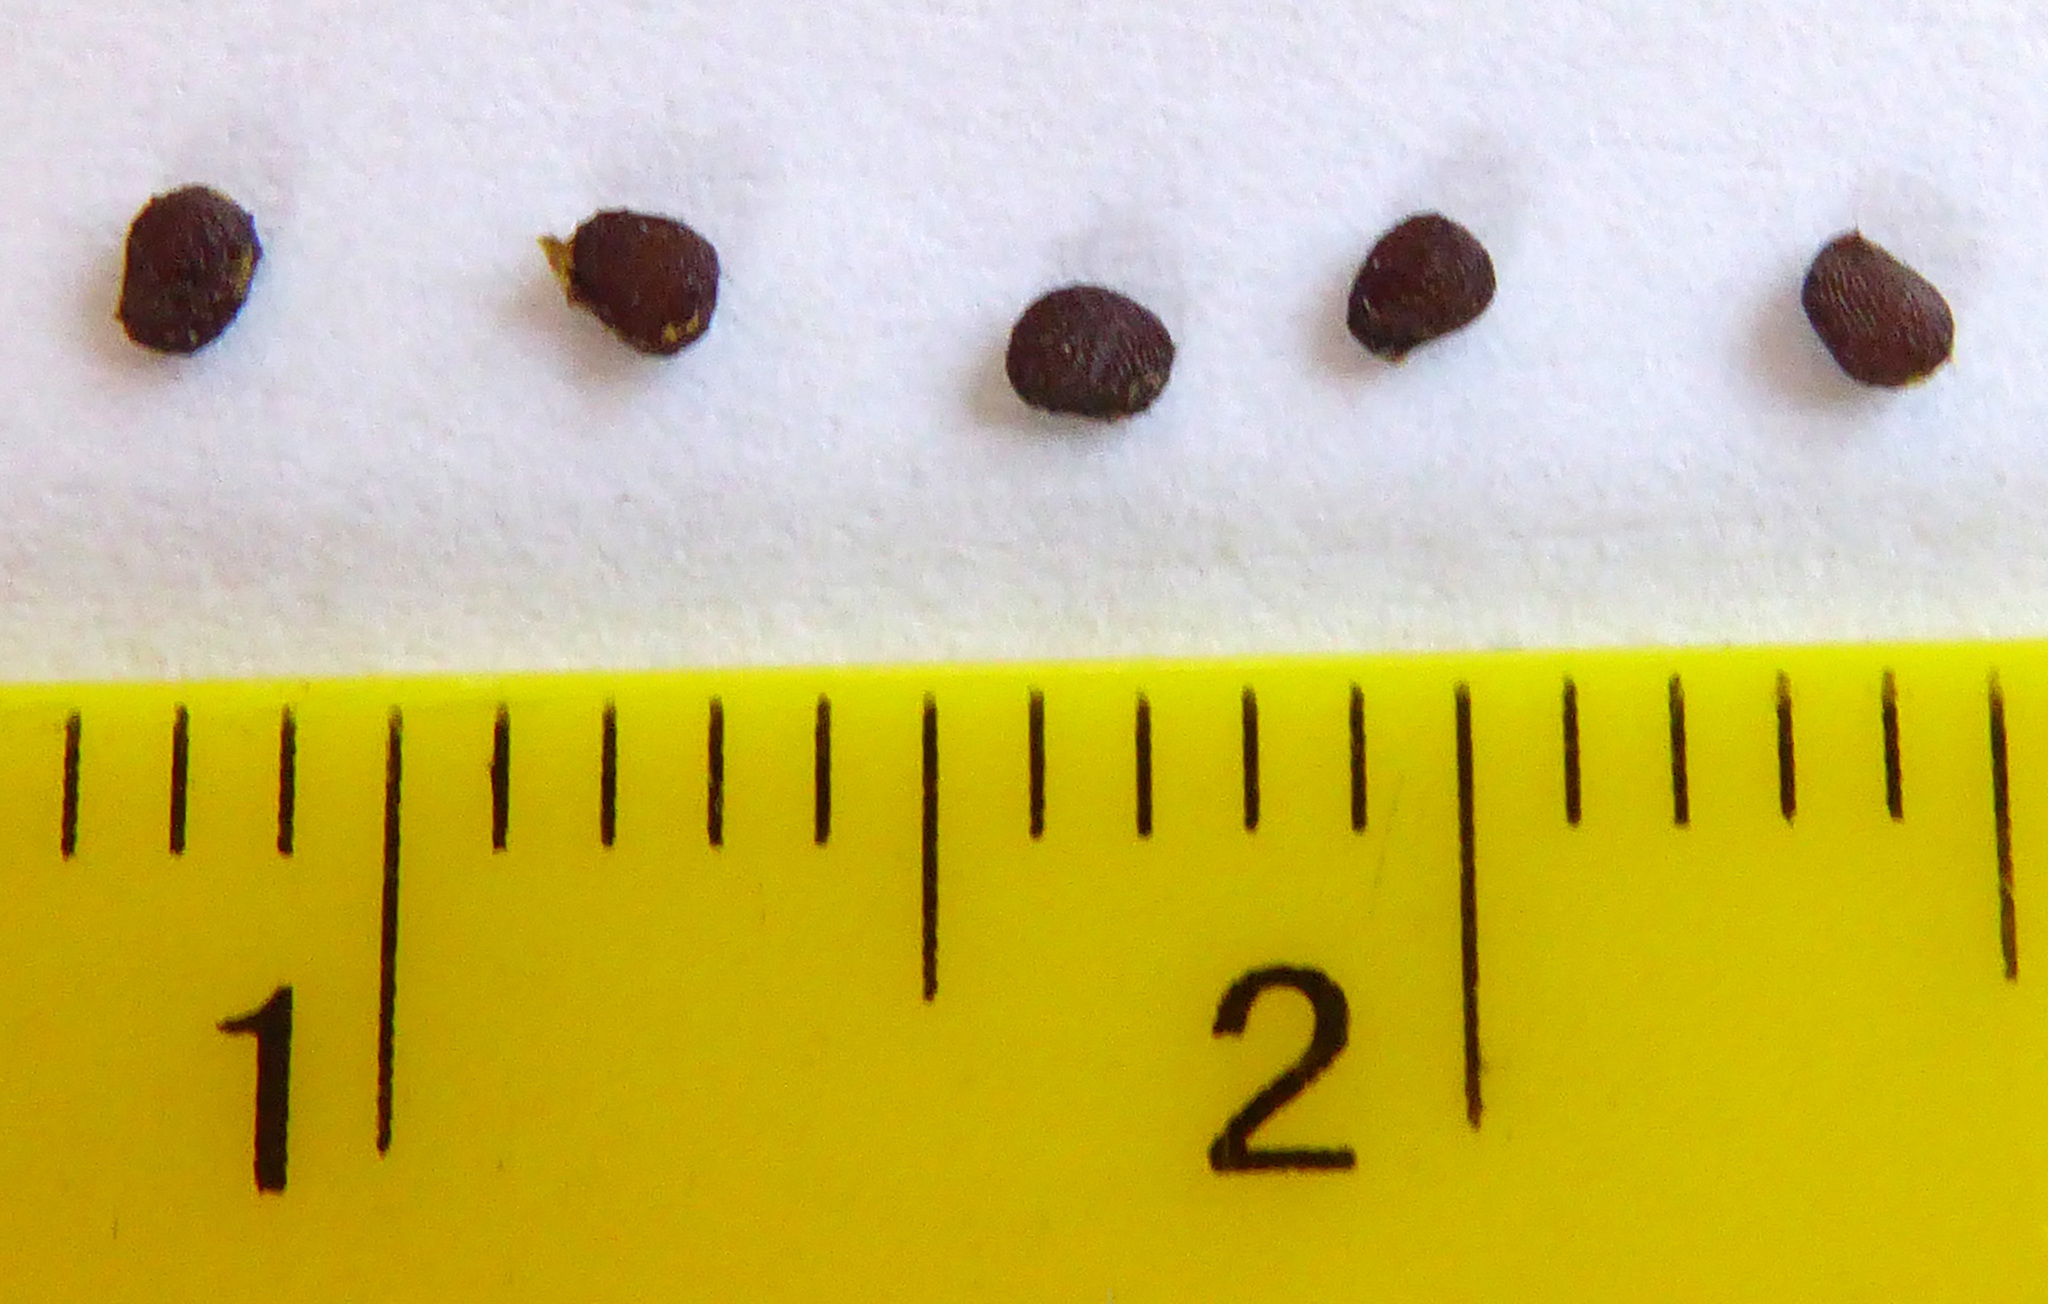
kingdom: Plantae
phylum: Tracheophyta
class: Magnoliopsida
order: Solanales
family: Solanaceae
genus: Solanum
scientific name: Solanum aviculare
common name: New zealand nightshade
